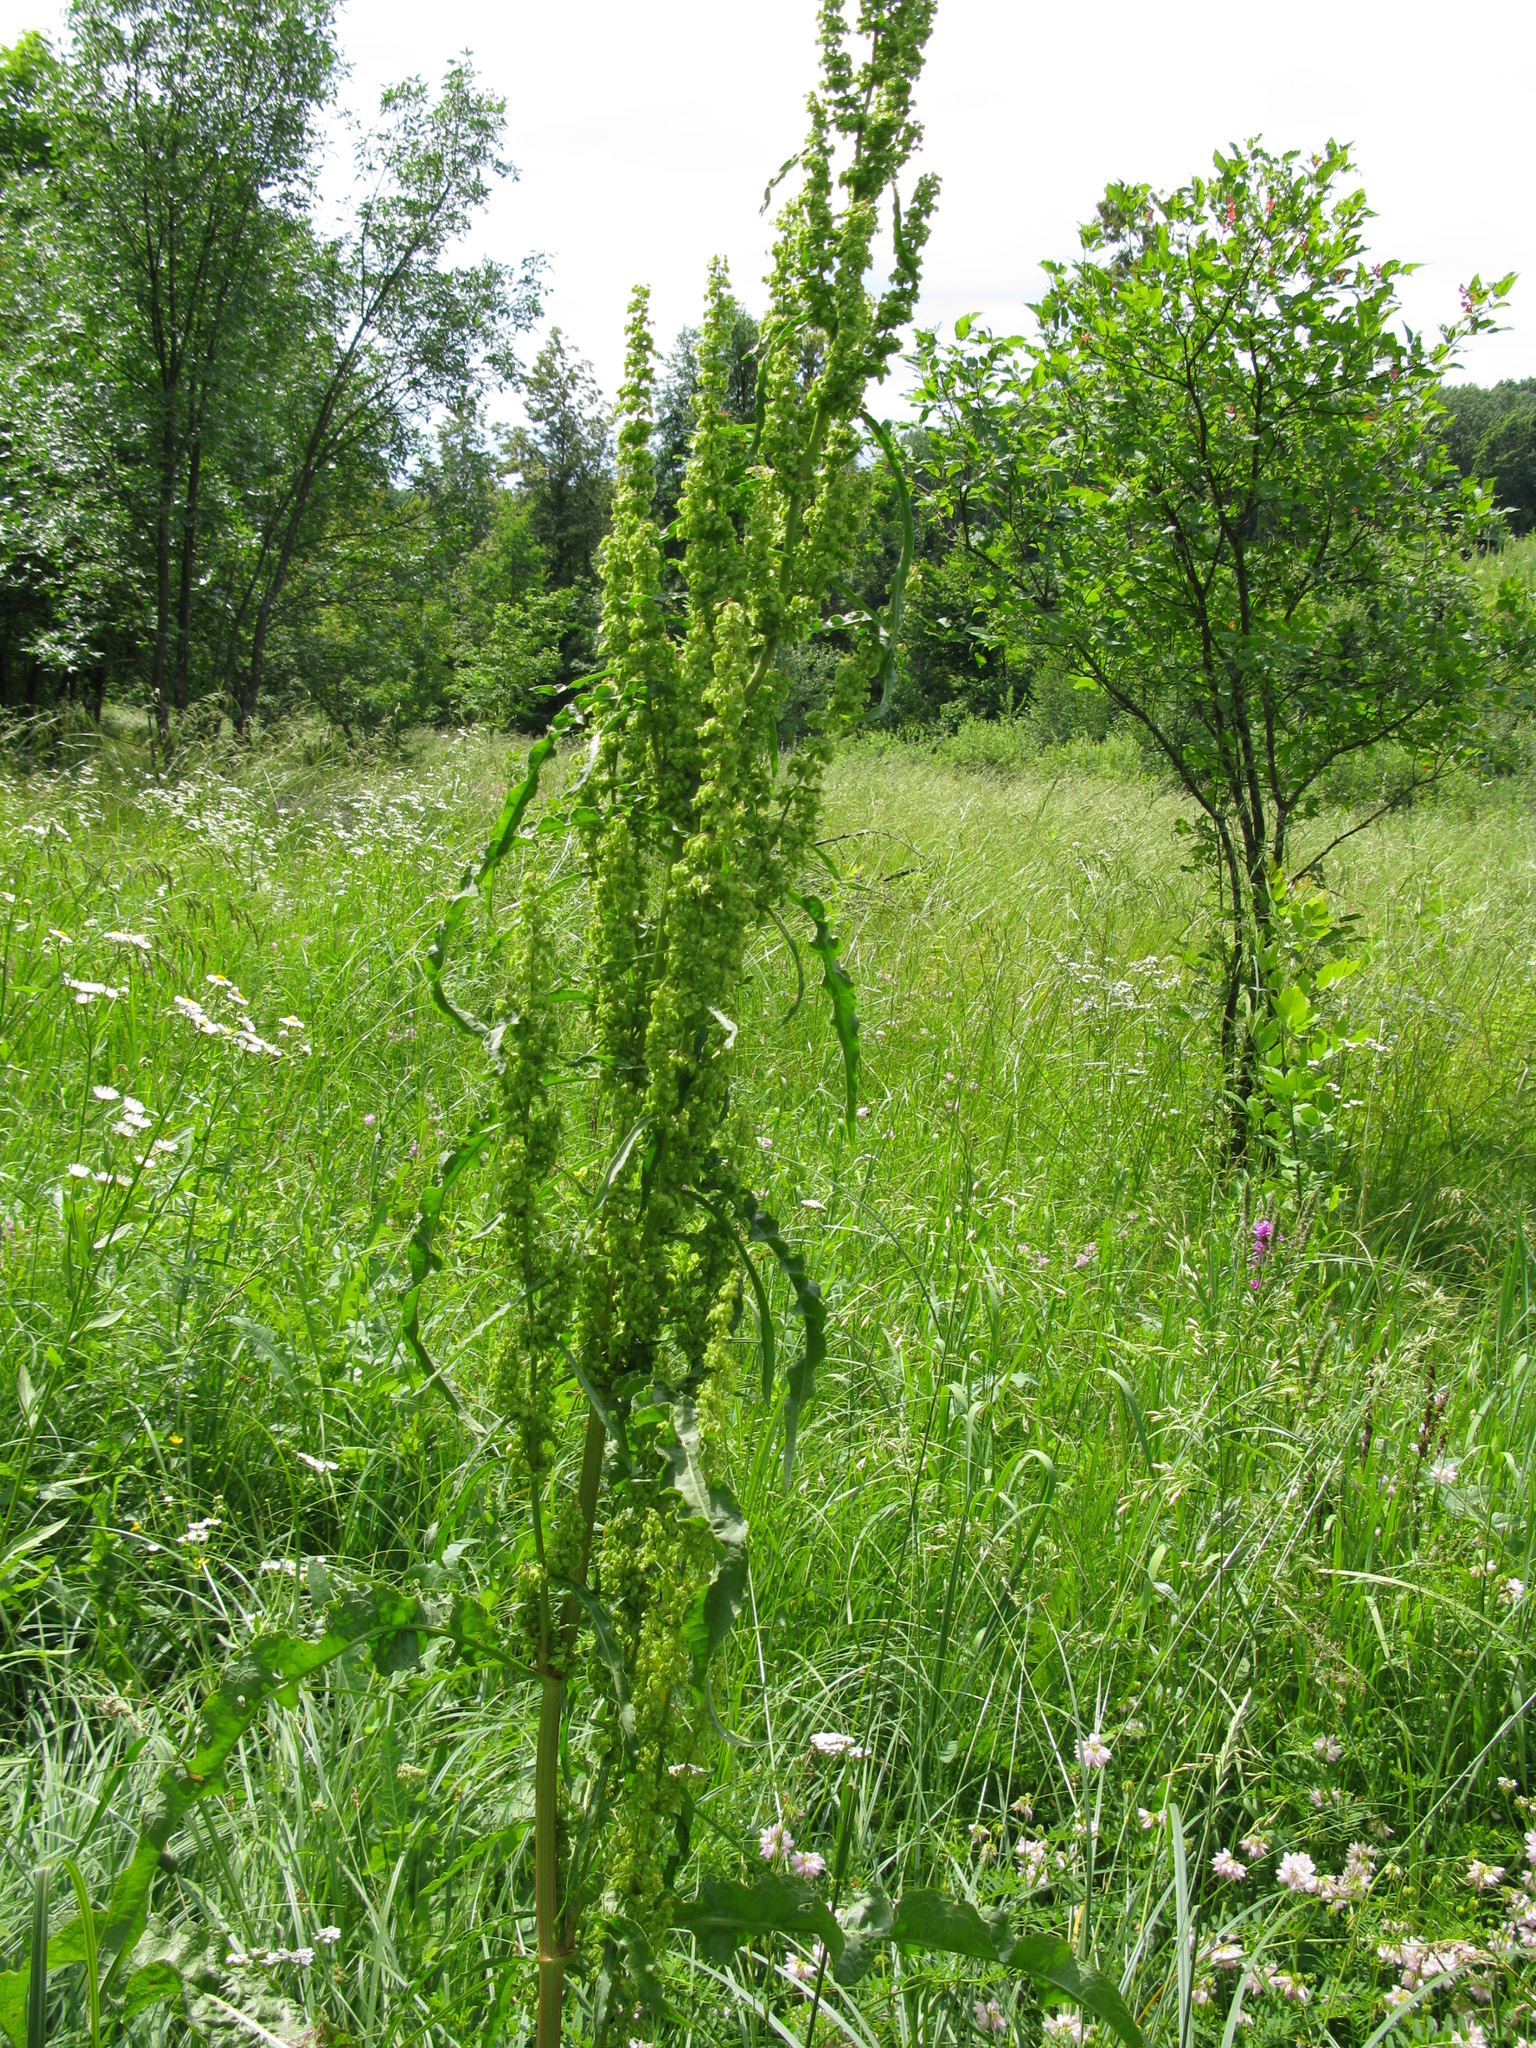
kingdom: Plantae
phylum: Tracheophyta
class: Magnoliopsida
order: Caryophyllales
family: Polygonaceae
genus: Rumex
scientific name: Rumex crispus
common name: Curled dock
